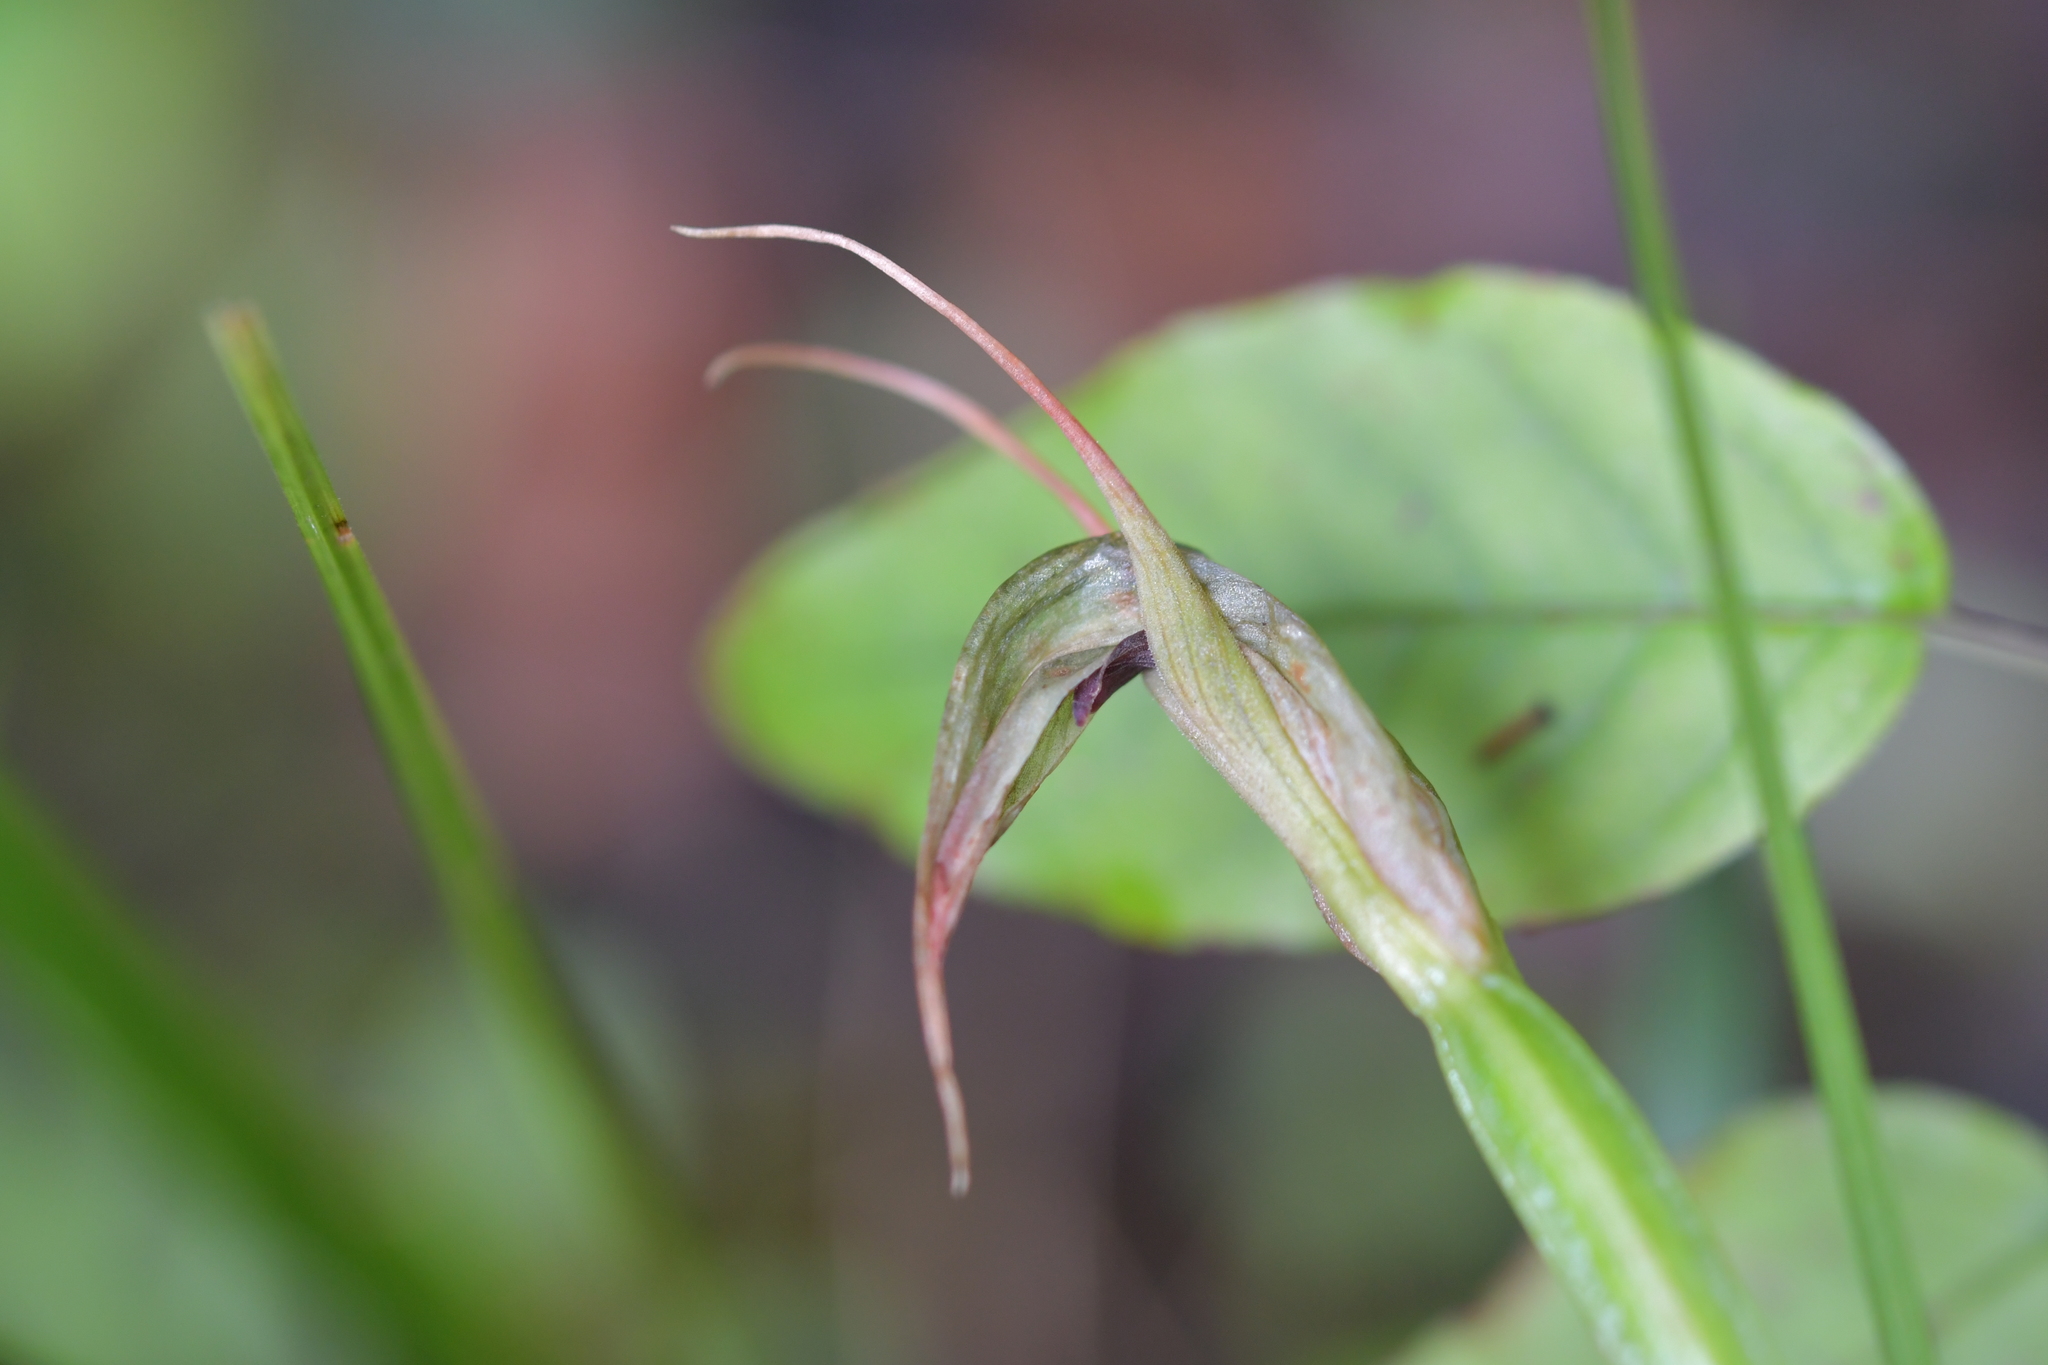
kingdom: Plantae
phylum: Tracheophyta
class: Liliopsida
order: Asparagales
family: Orchidaceae
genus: Pterostylis
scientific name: Pterostylis auriculata
